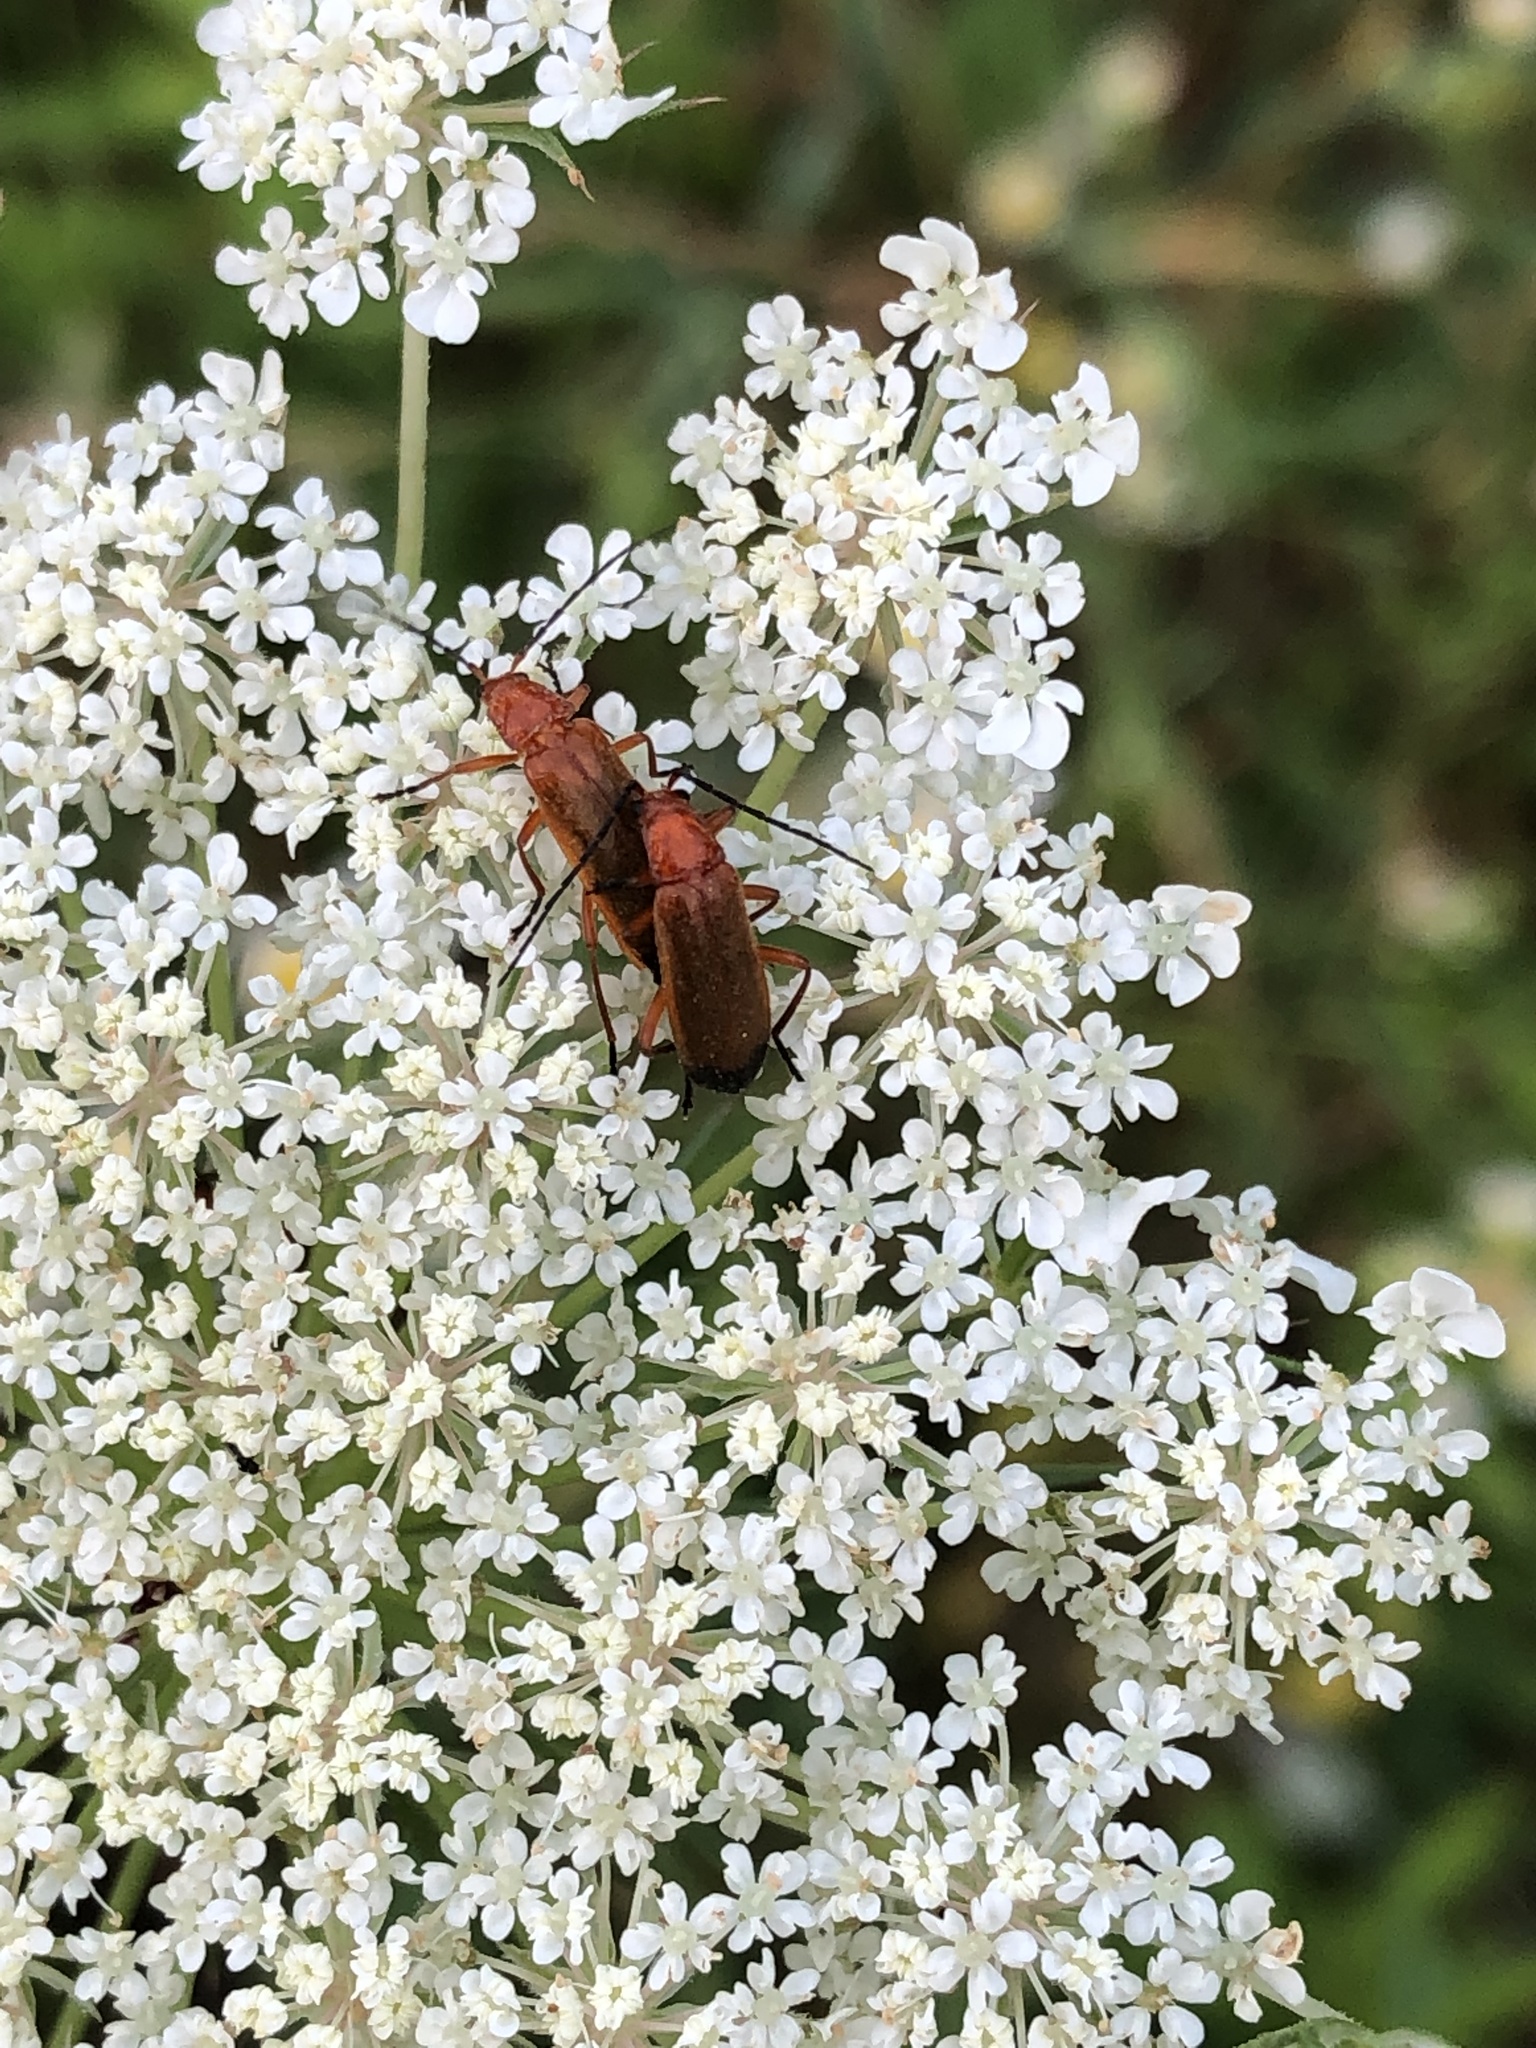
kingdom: Animalia
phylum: Arthropoda
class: Insecta
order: Coleoptera
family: Cantharidae
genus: Rhagonycha
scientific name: Rhagonycha fulva
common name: Common red soldier beetle
